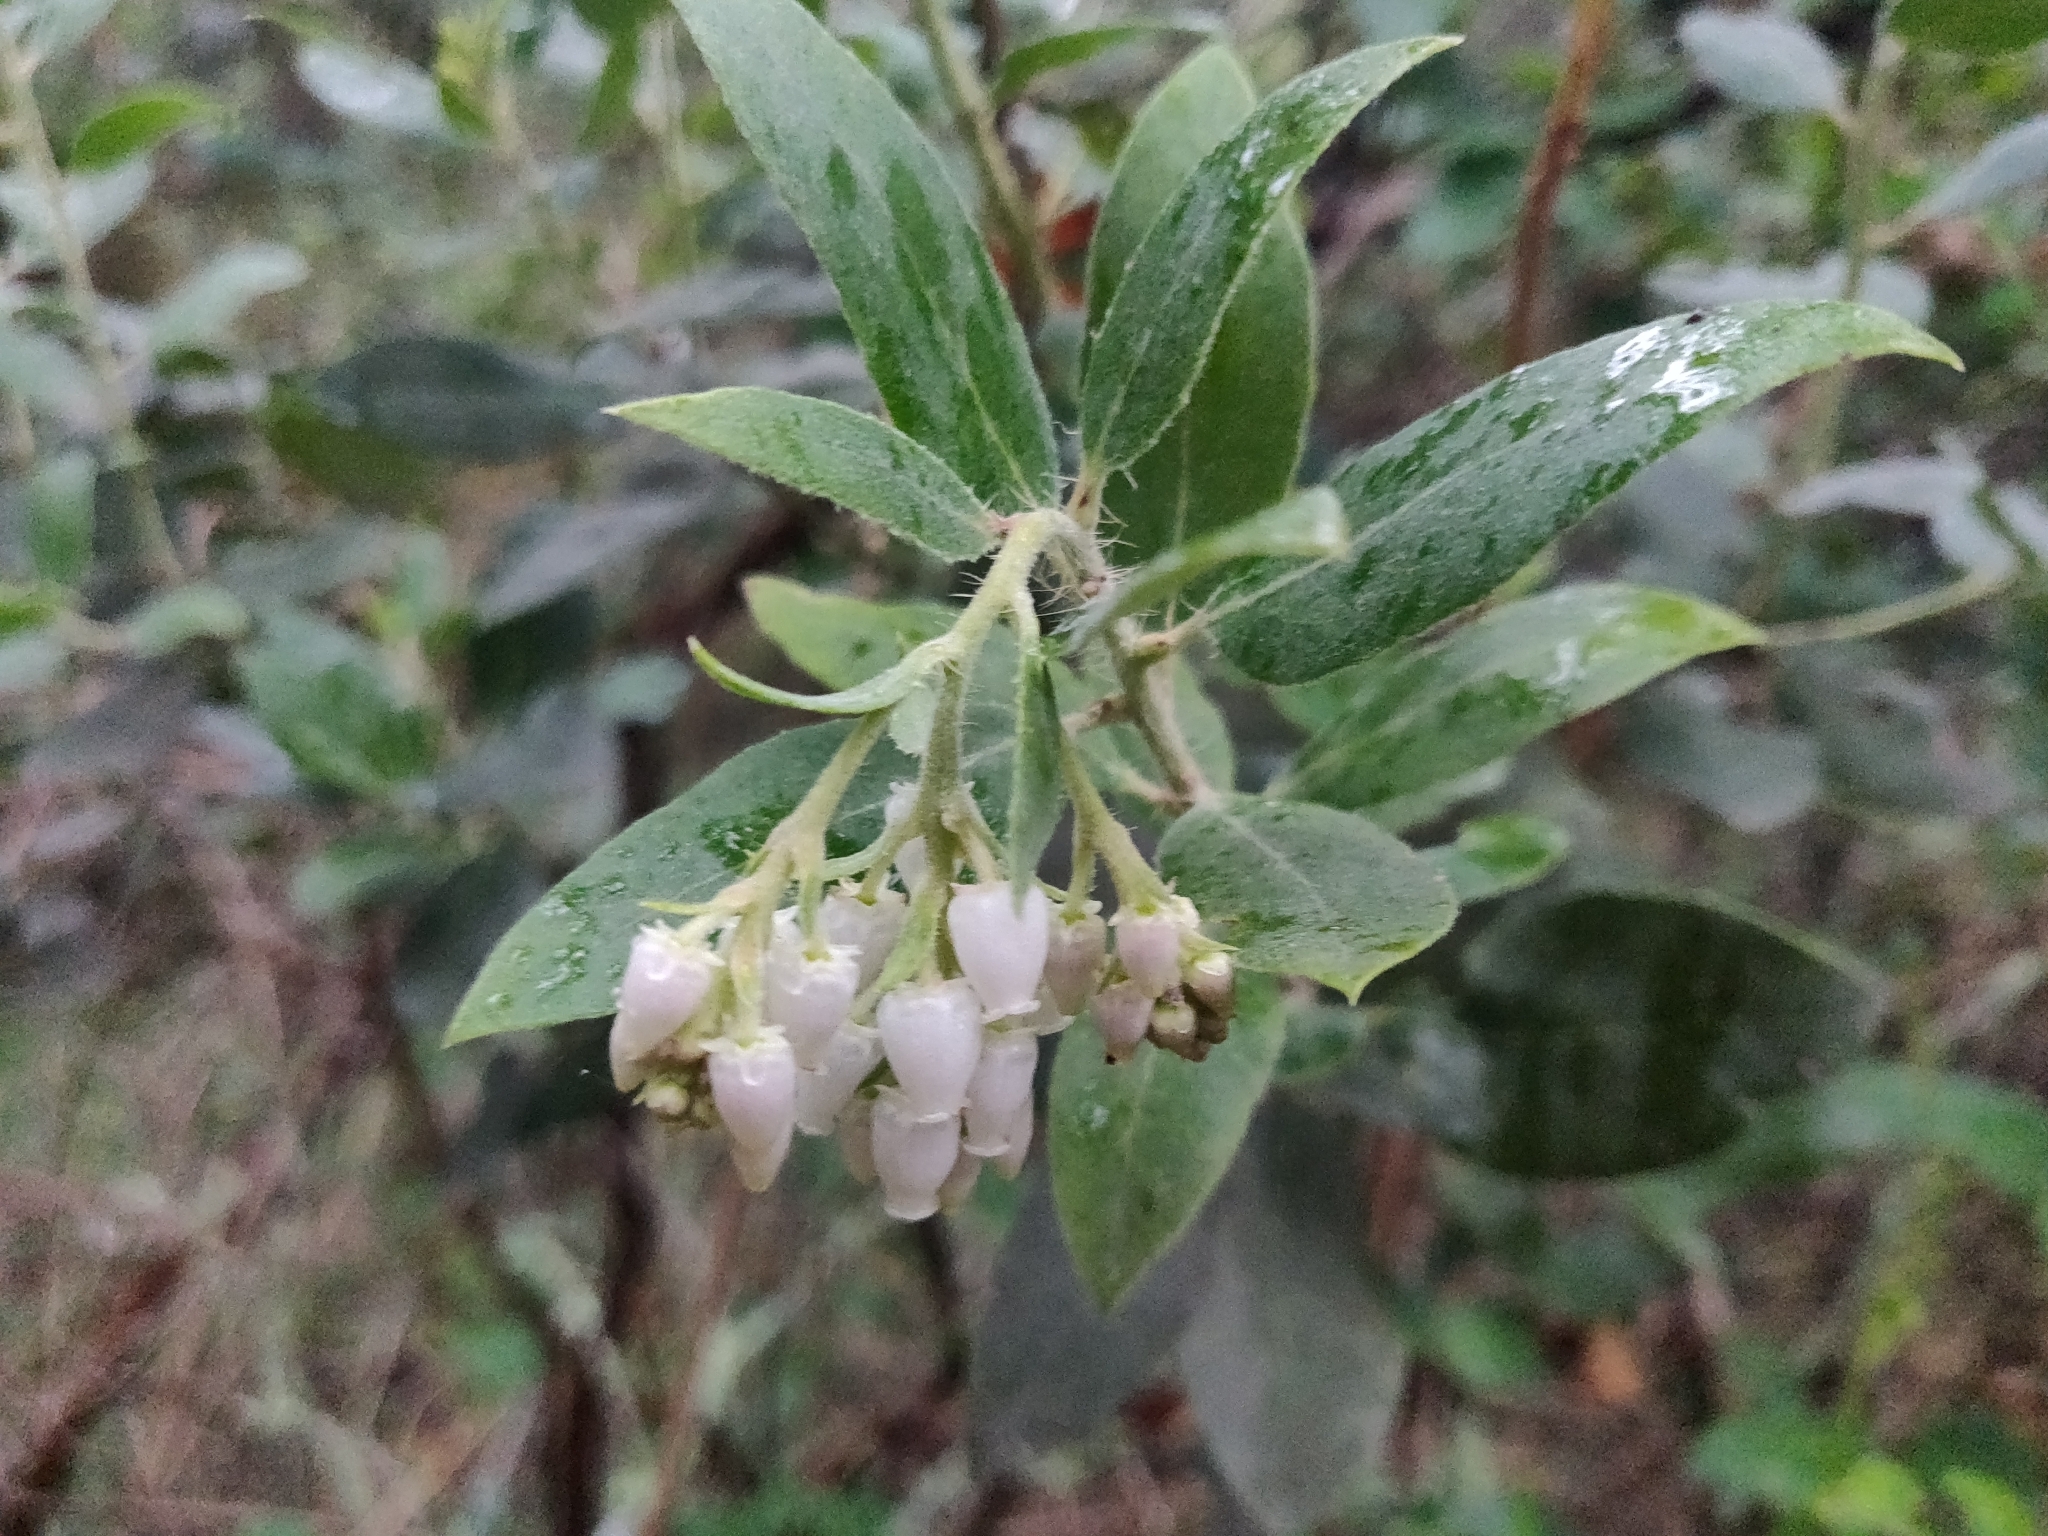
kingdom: Plantae
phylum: Tracheophyta
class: Magnoliopsida
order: Ericales
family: Ericaceae
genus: Arctostaphylos
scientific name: Arctostaphylos crustacea
